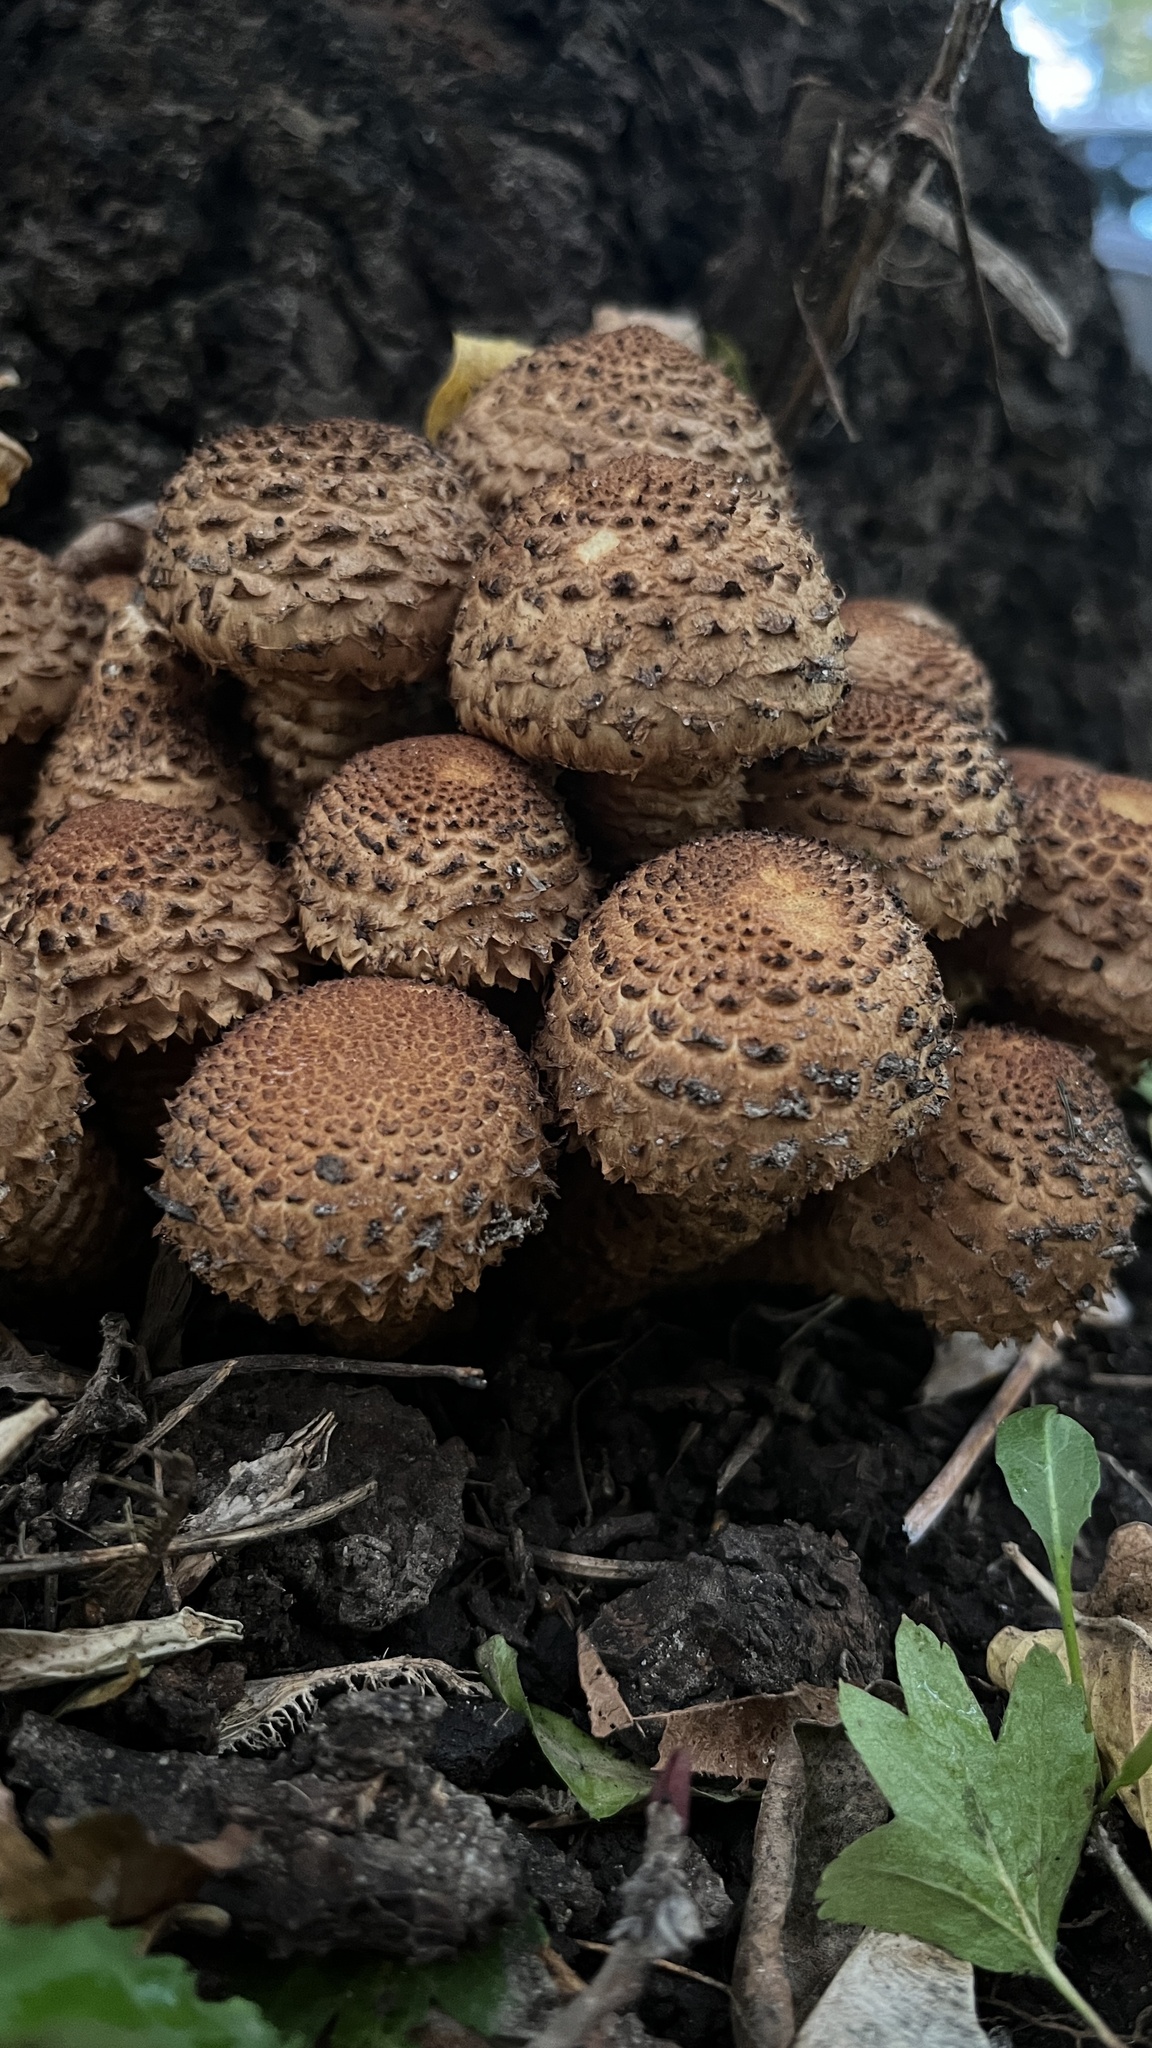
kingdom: Fungi
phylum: Basidiomycota
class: Agaricomycetes
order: Agaricales
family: Strophariaceae
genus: Pholiota
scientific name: Pholiota squarrosa
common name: Shaggy pholiota
